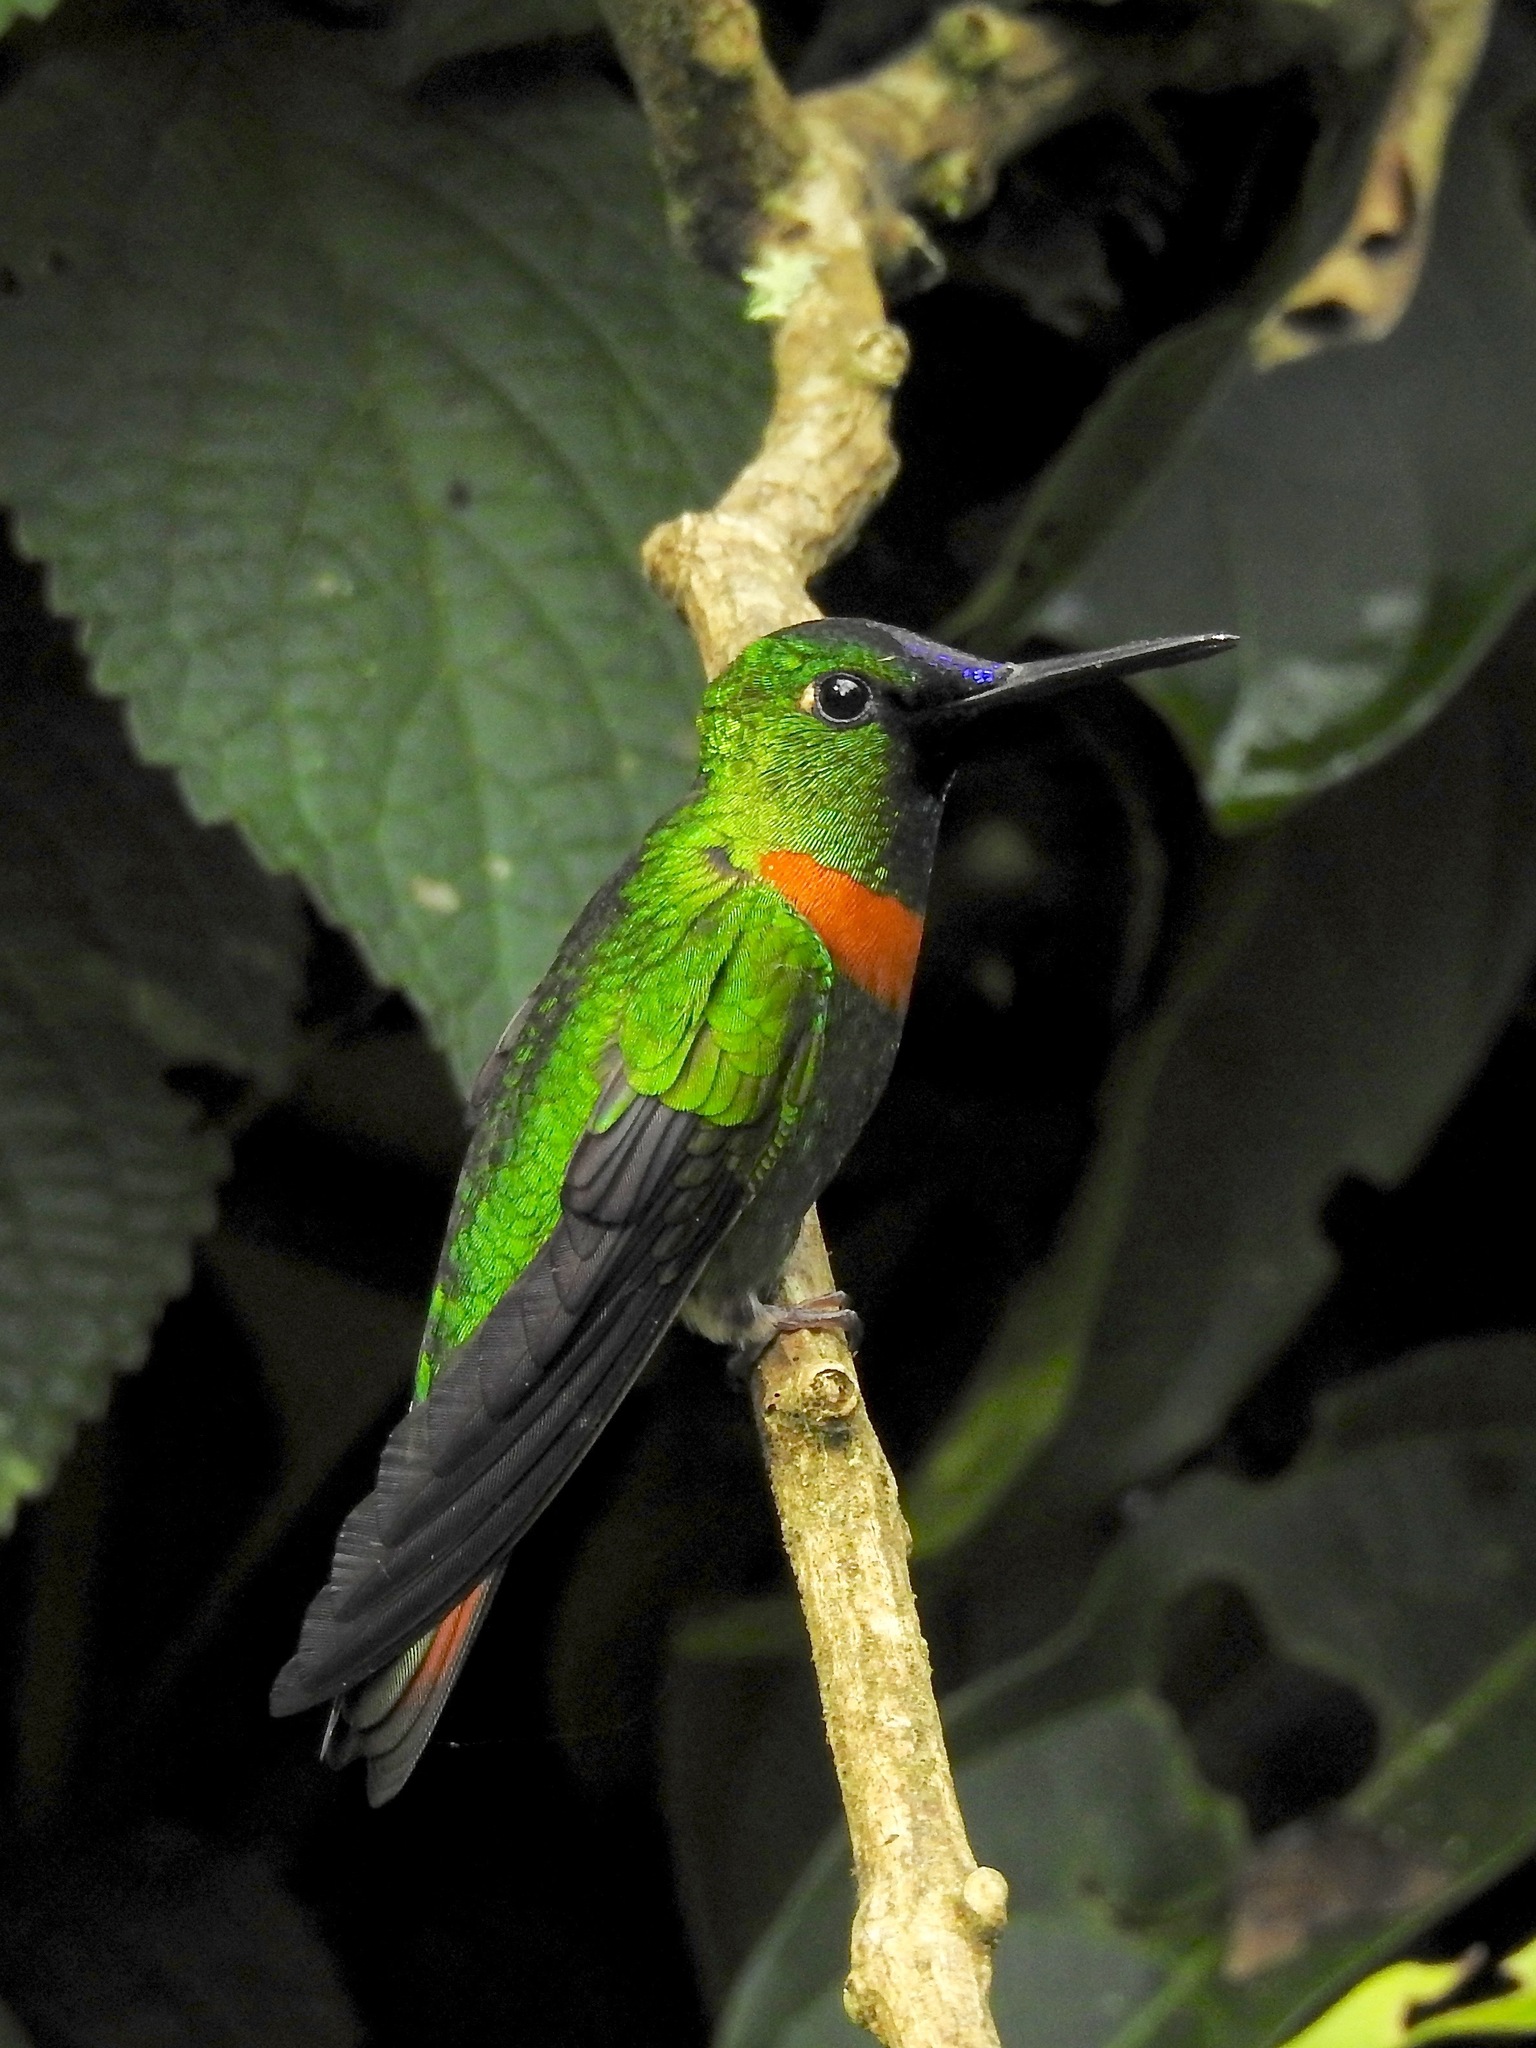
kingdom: Animalia
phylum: Chordata
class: Aves
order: Apodiformes
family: Trochilidae
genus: Heliodoxa
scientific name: Heliodoxa aurescens
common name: Gould's jewelfront
